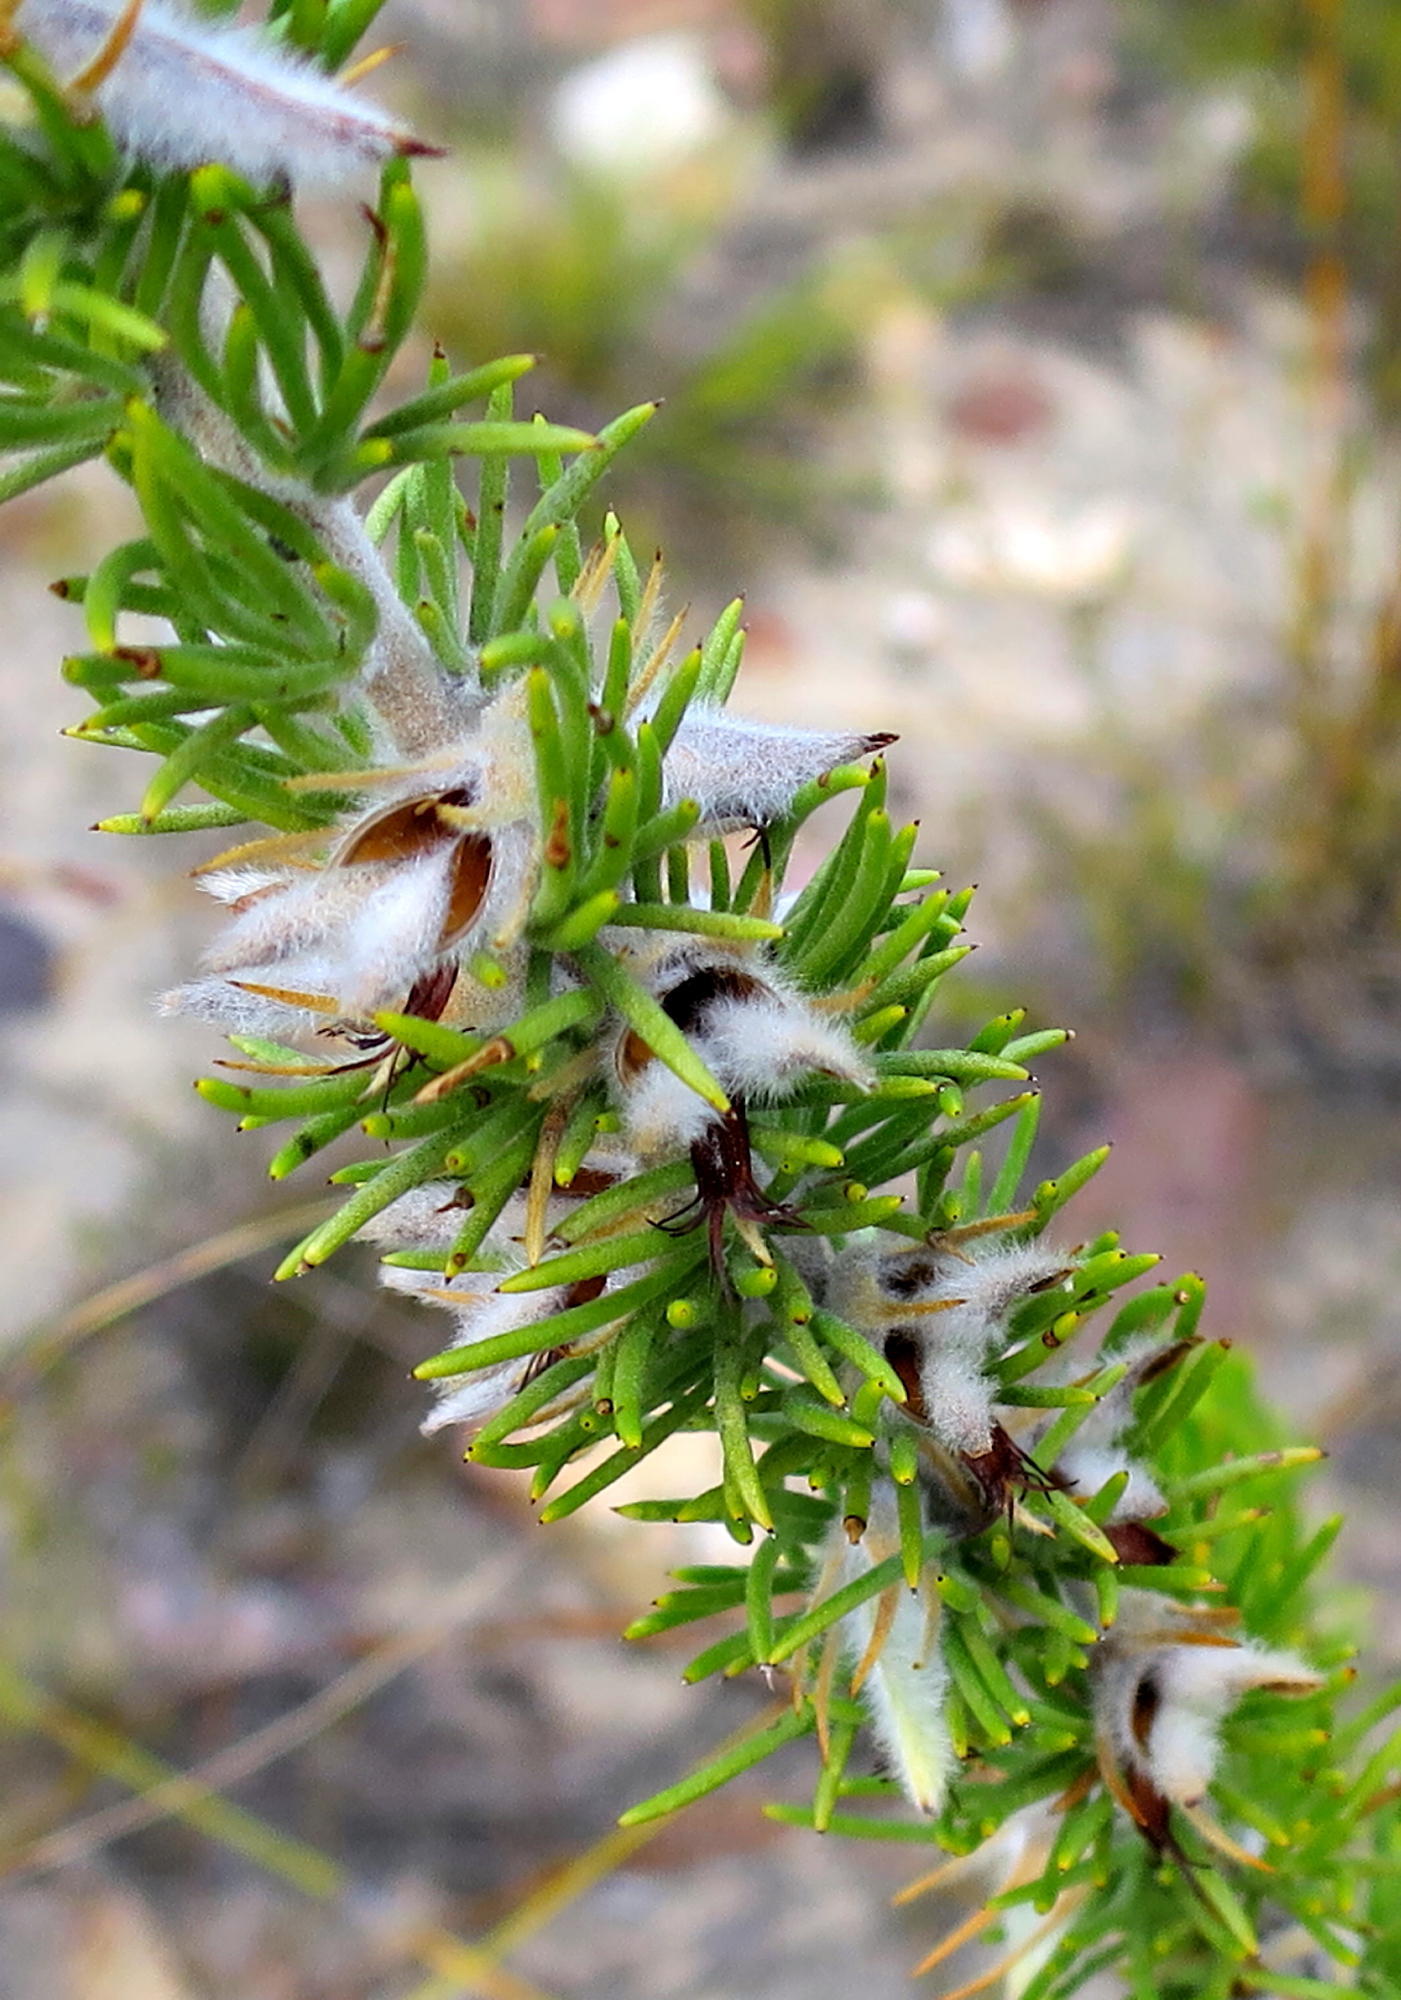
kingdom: Plantae
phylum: Tracheophyta
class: Magnoliopsida
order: Fabales
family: Fabaceae
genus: Aspalathus
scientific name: Aspalathus acanthes
